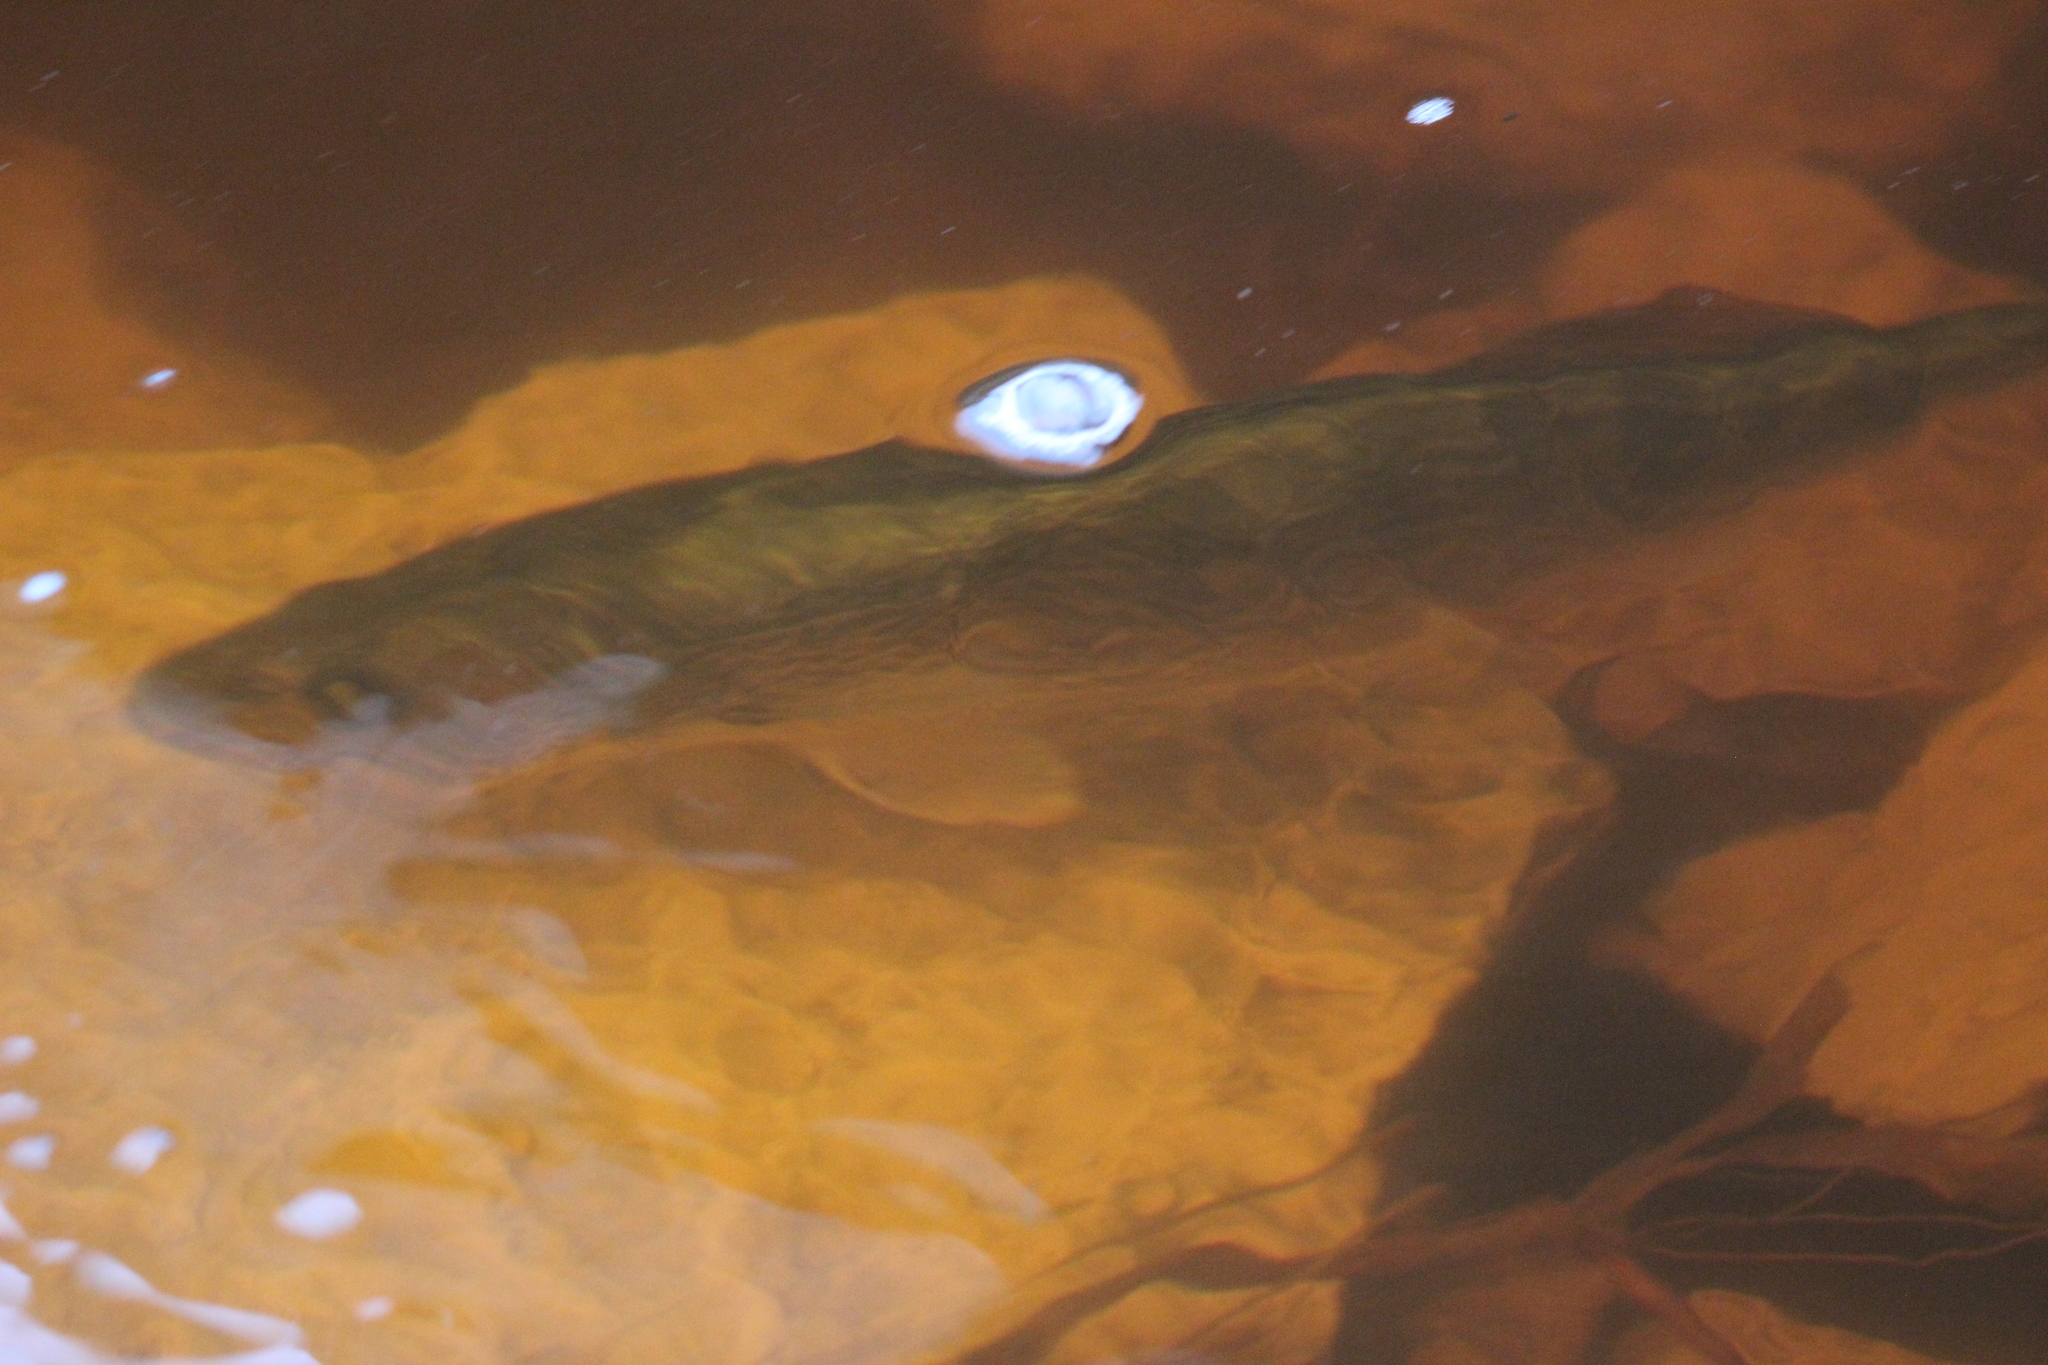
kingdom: Animalia
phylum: Chordata
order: Perciformes
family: Percidae
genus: Sander
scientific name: Sander vitreus
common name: Walleye
